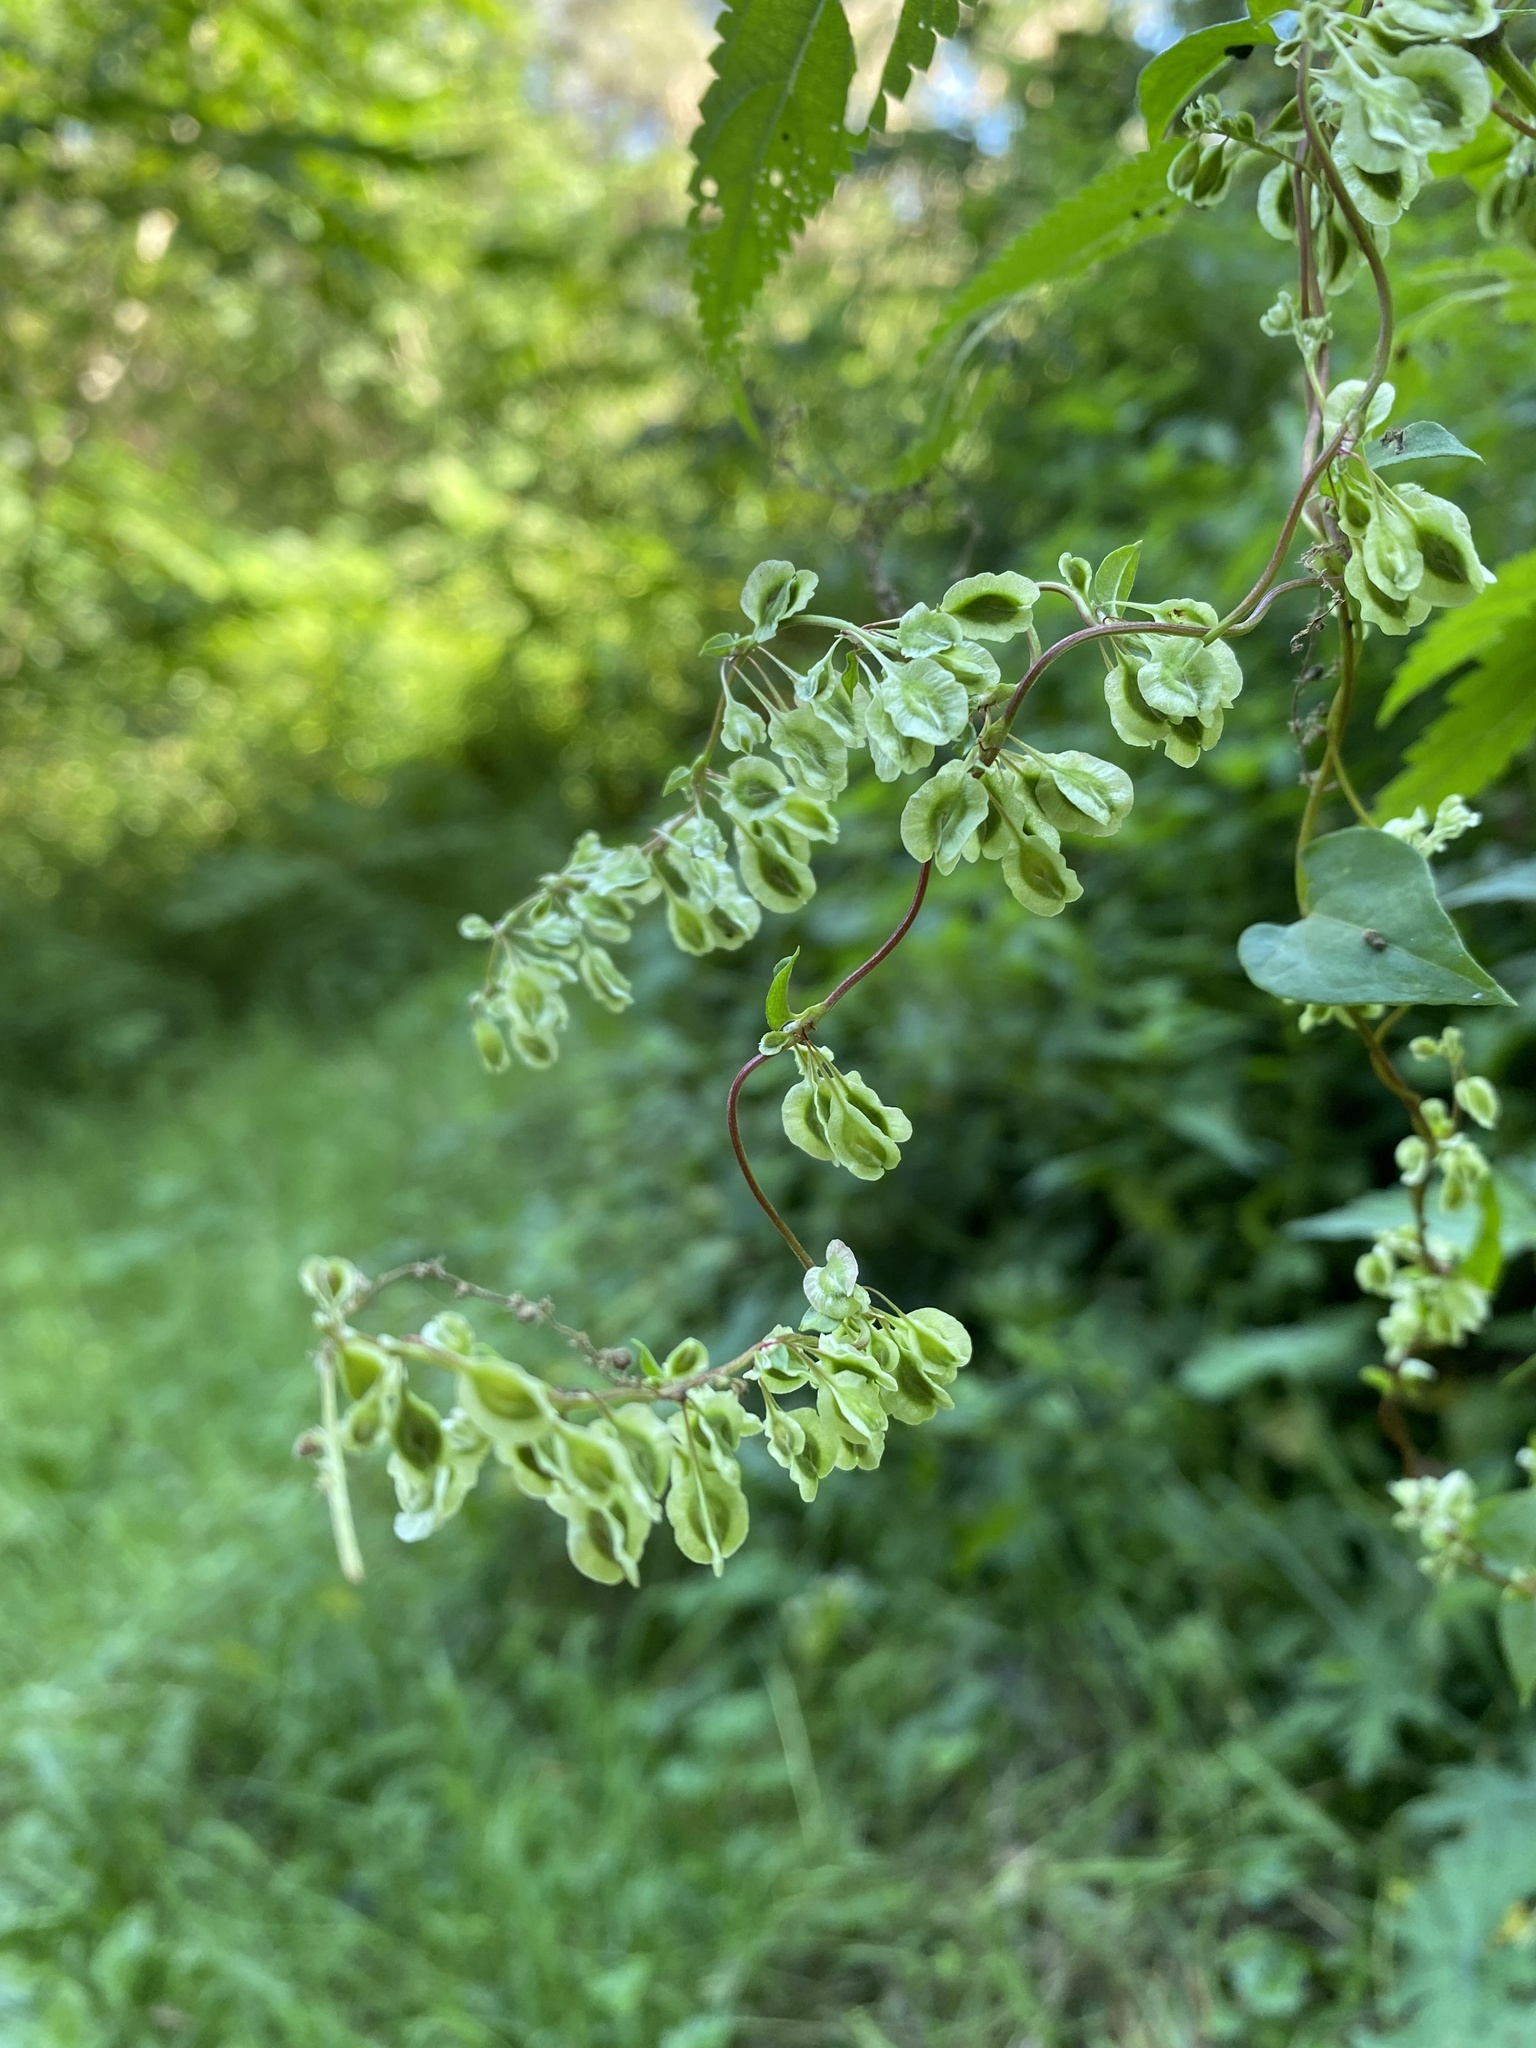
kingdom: Plantae
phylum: Tracheophyta
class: Magnoliopsida
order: Caryophyllales
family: Polygonaceae
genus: Fallopia
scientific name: Fallopia dumetorum
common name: Copse-bindweed
